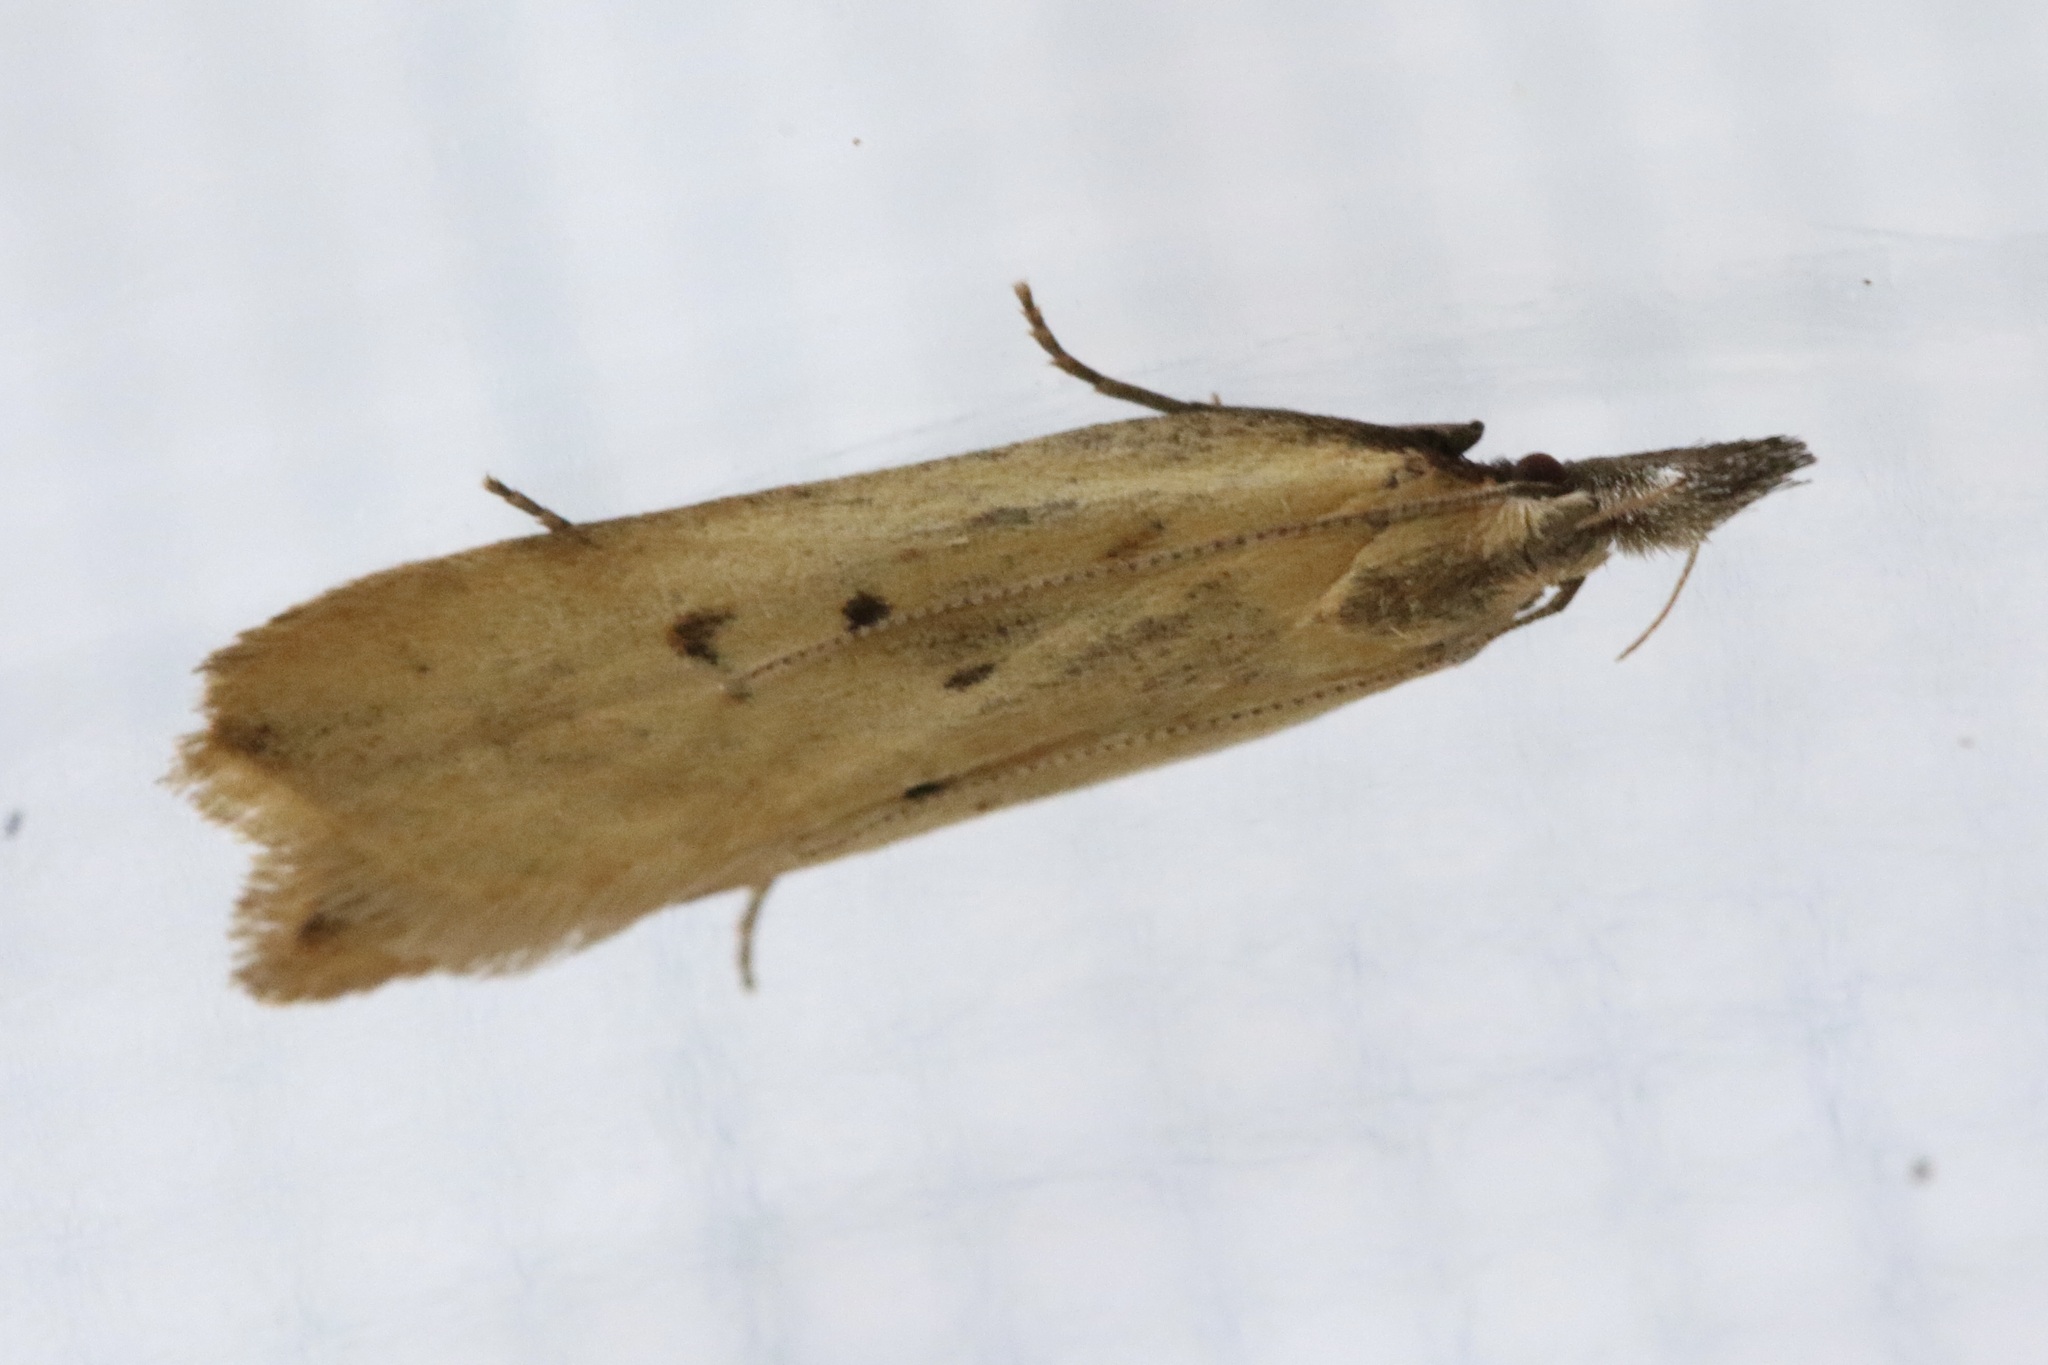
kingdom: Animalia
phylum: Arthropoda
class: Insecta
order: Lepidoptera
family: Gelechiidae
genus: Dichomeris
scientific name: Dichomeris limosellus
